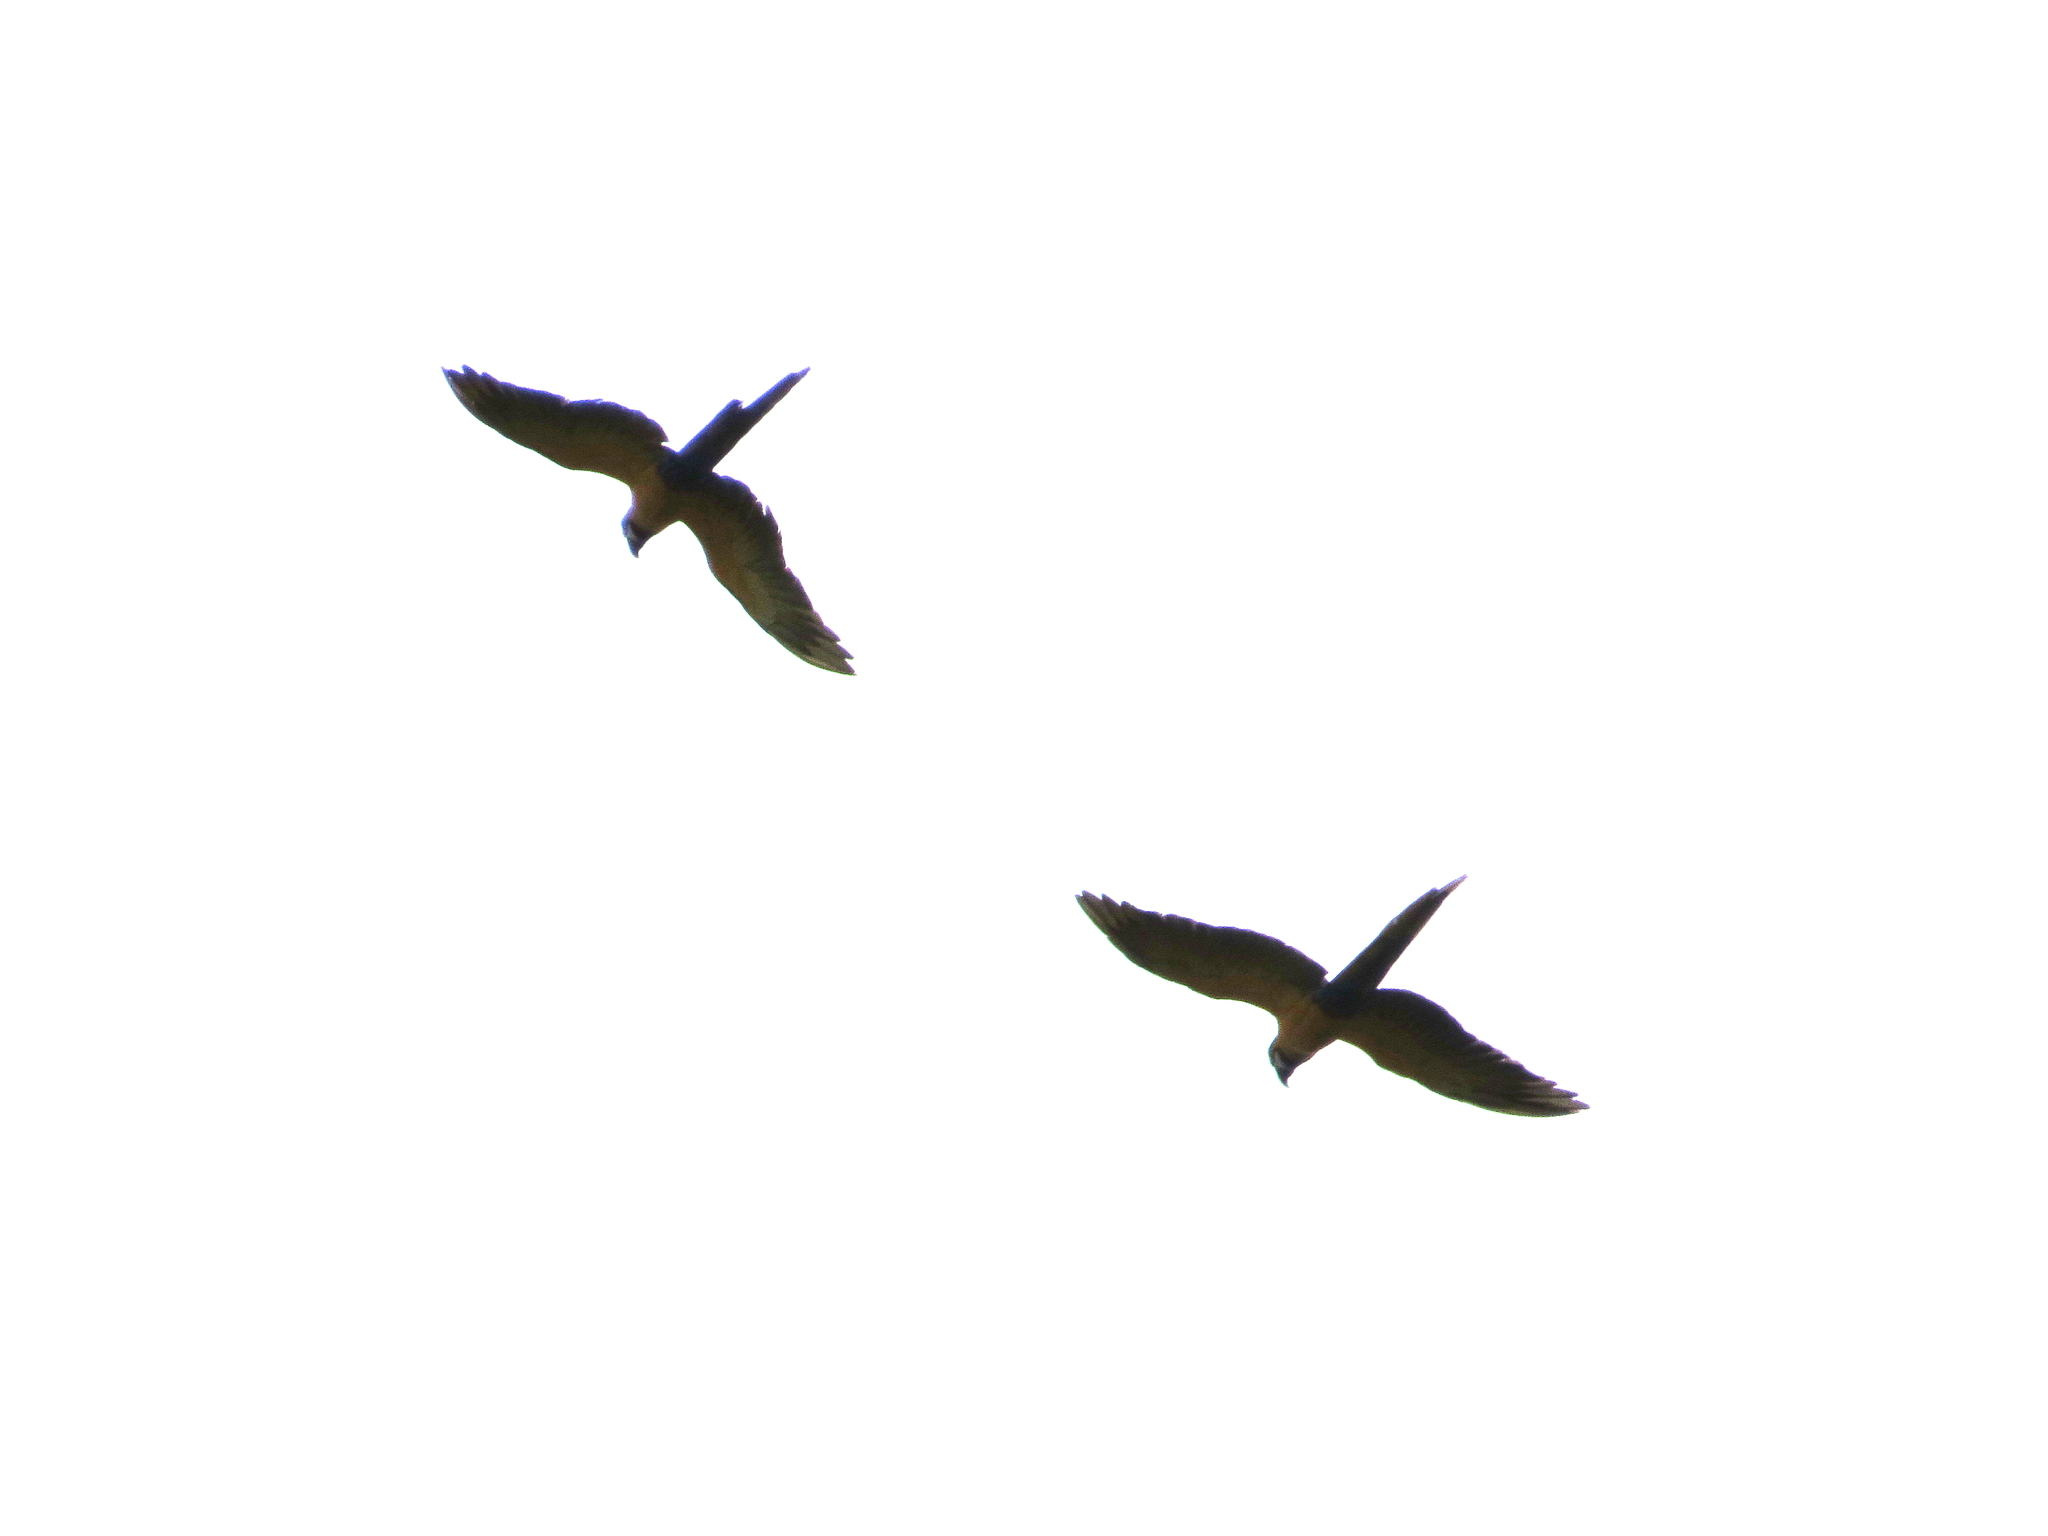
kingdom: Animalia
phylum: Chordata
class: Aves
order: Psittaciformes
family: Psittacidae
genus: Ara
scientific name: Ara ararauna
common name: Blue-and-yellow macaw
